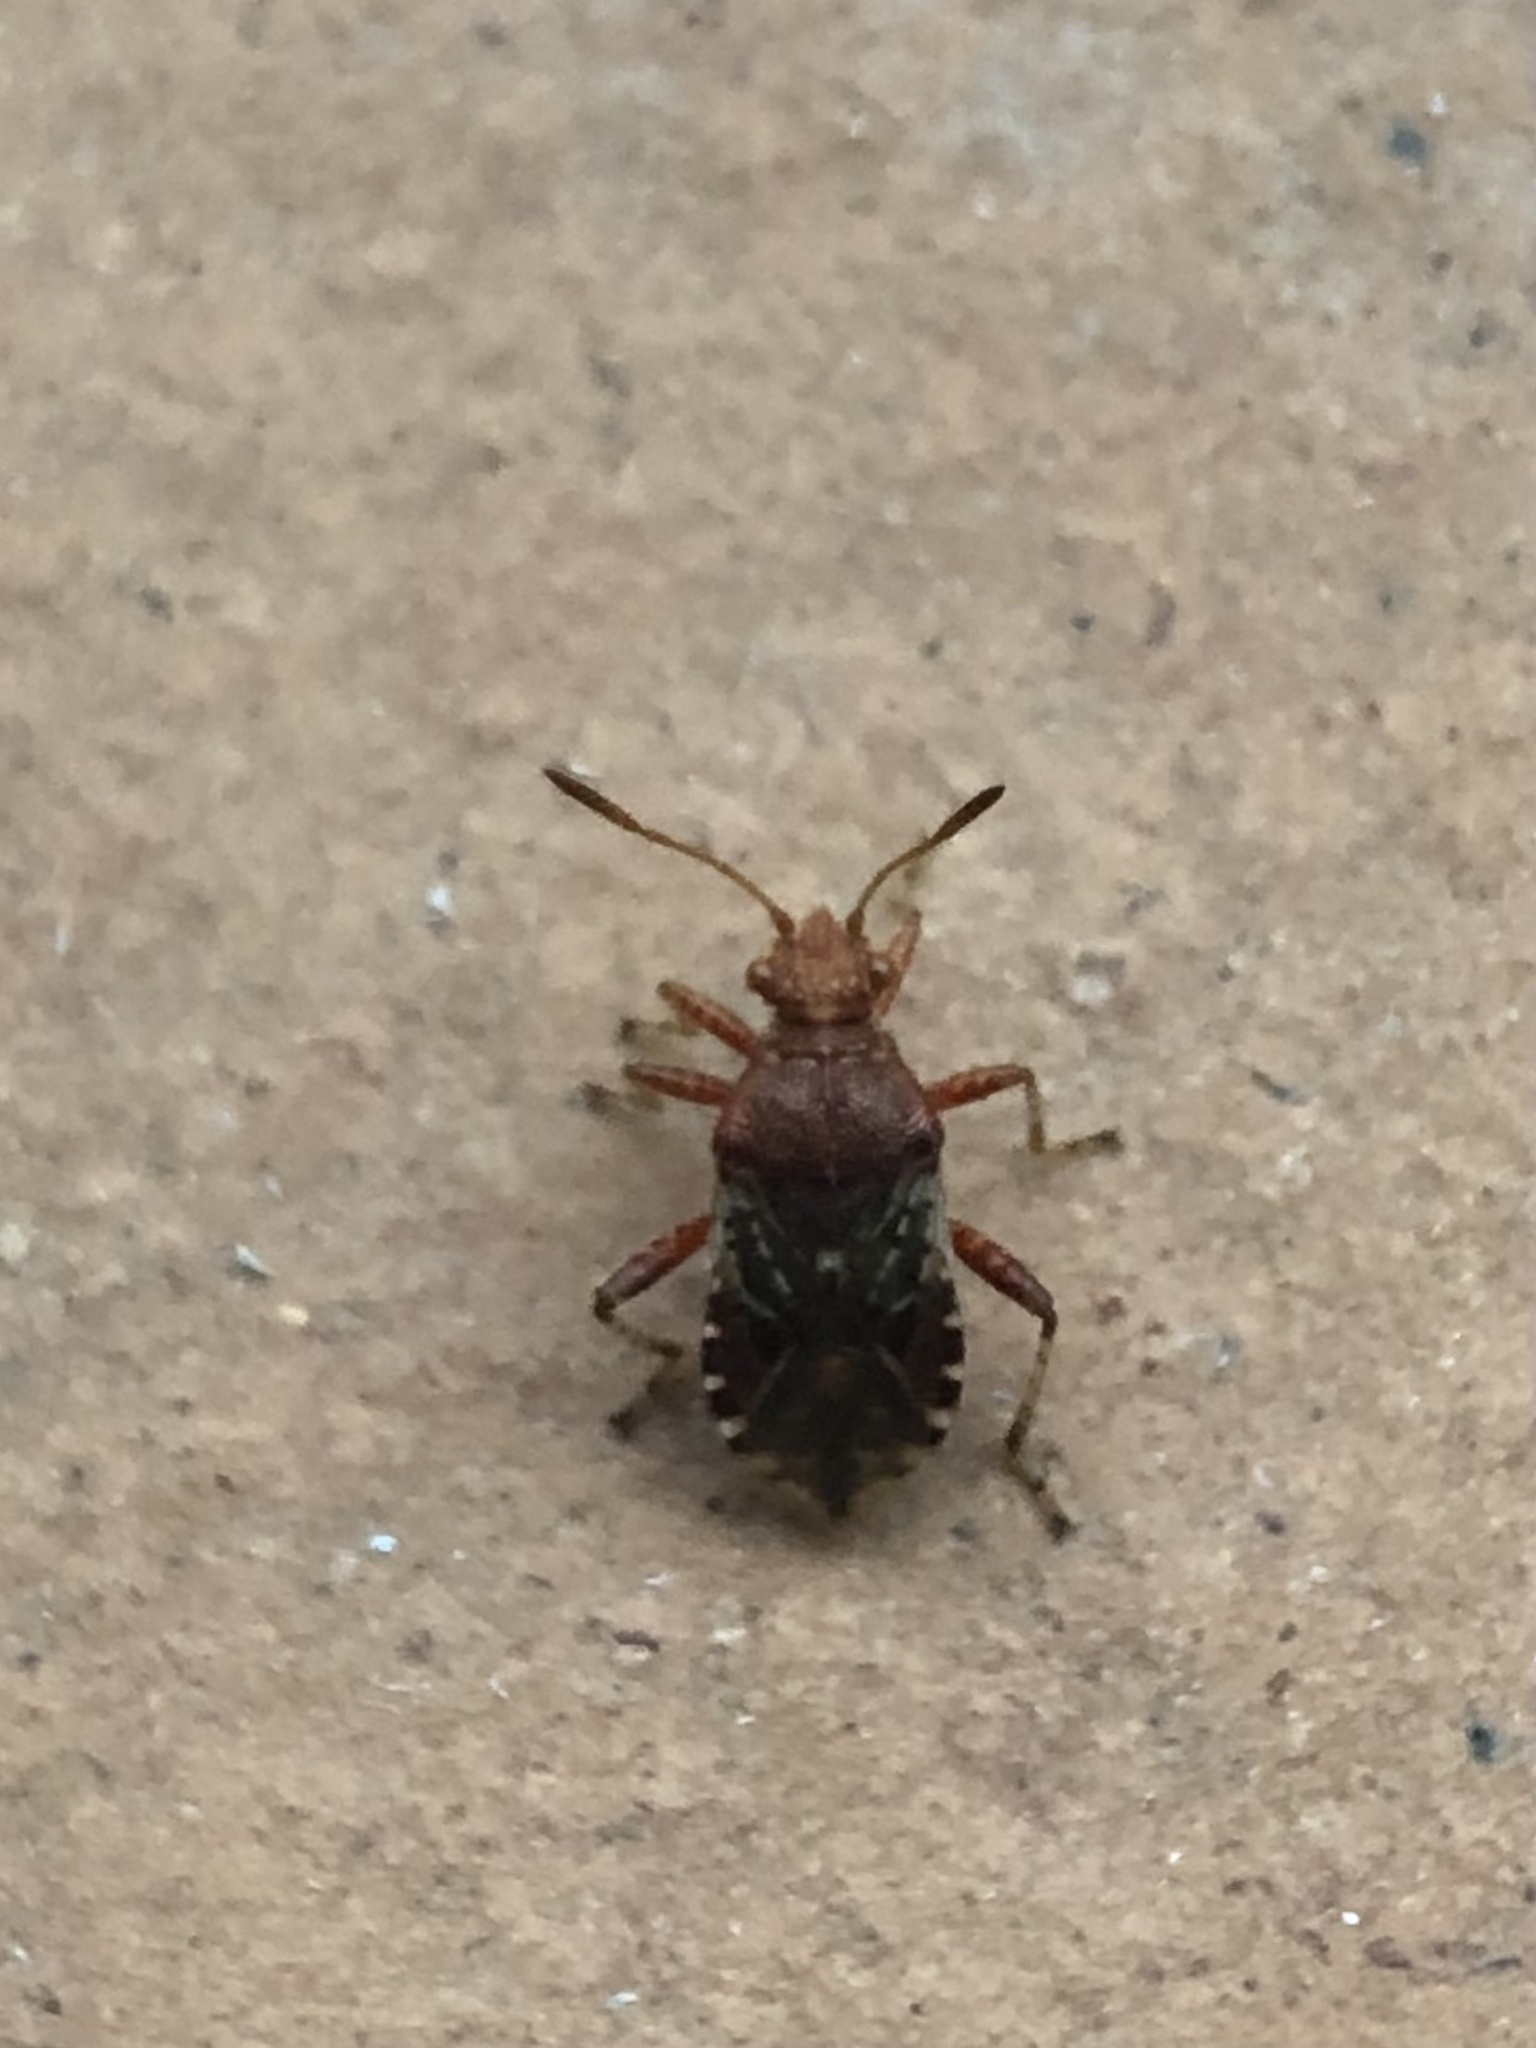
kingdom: Animalia
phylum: Arthropoda
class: Insecta
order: Hemiptera
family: Rhopalidae
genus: Rhopalus
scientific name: Rhopalus subrufus
